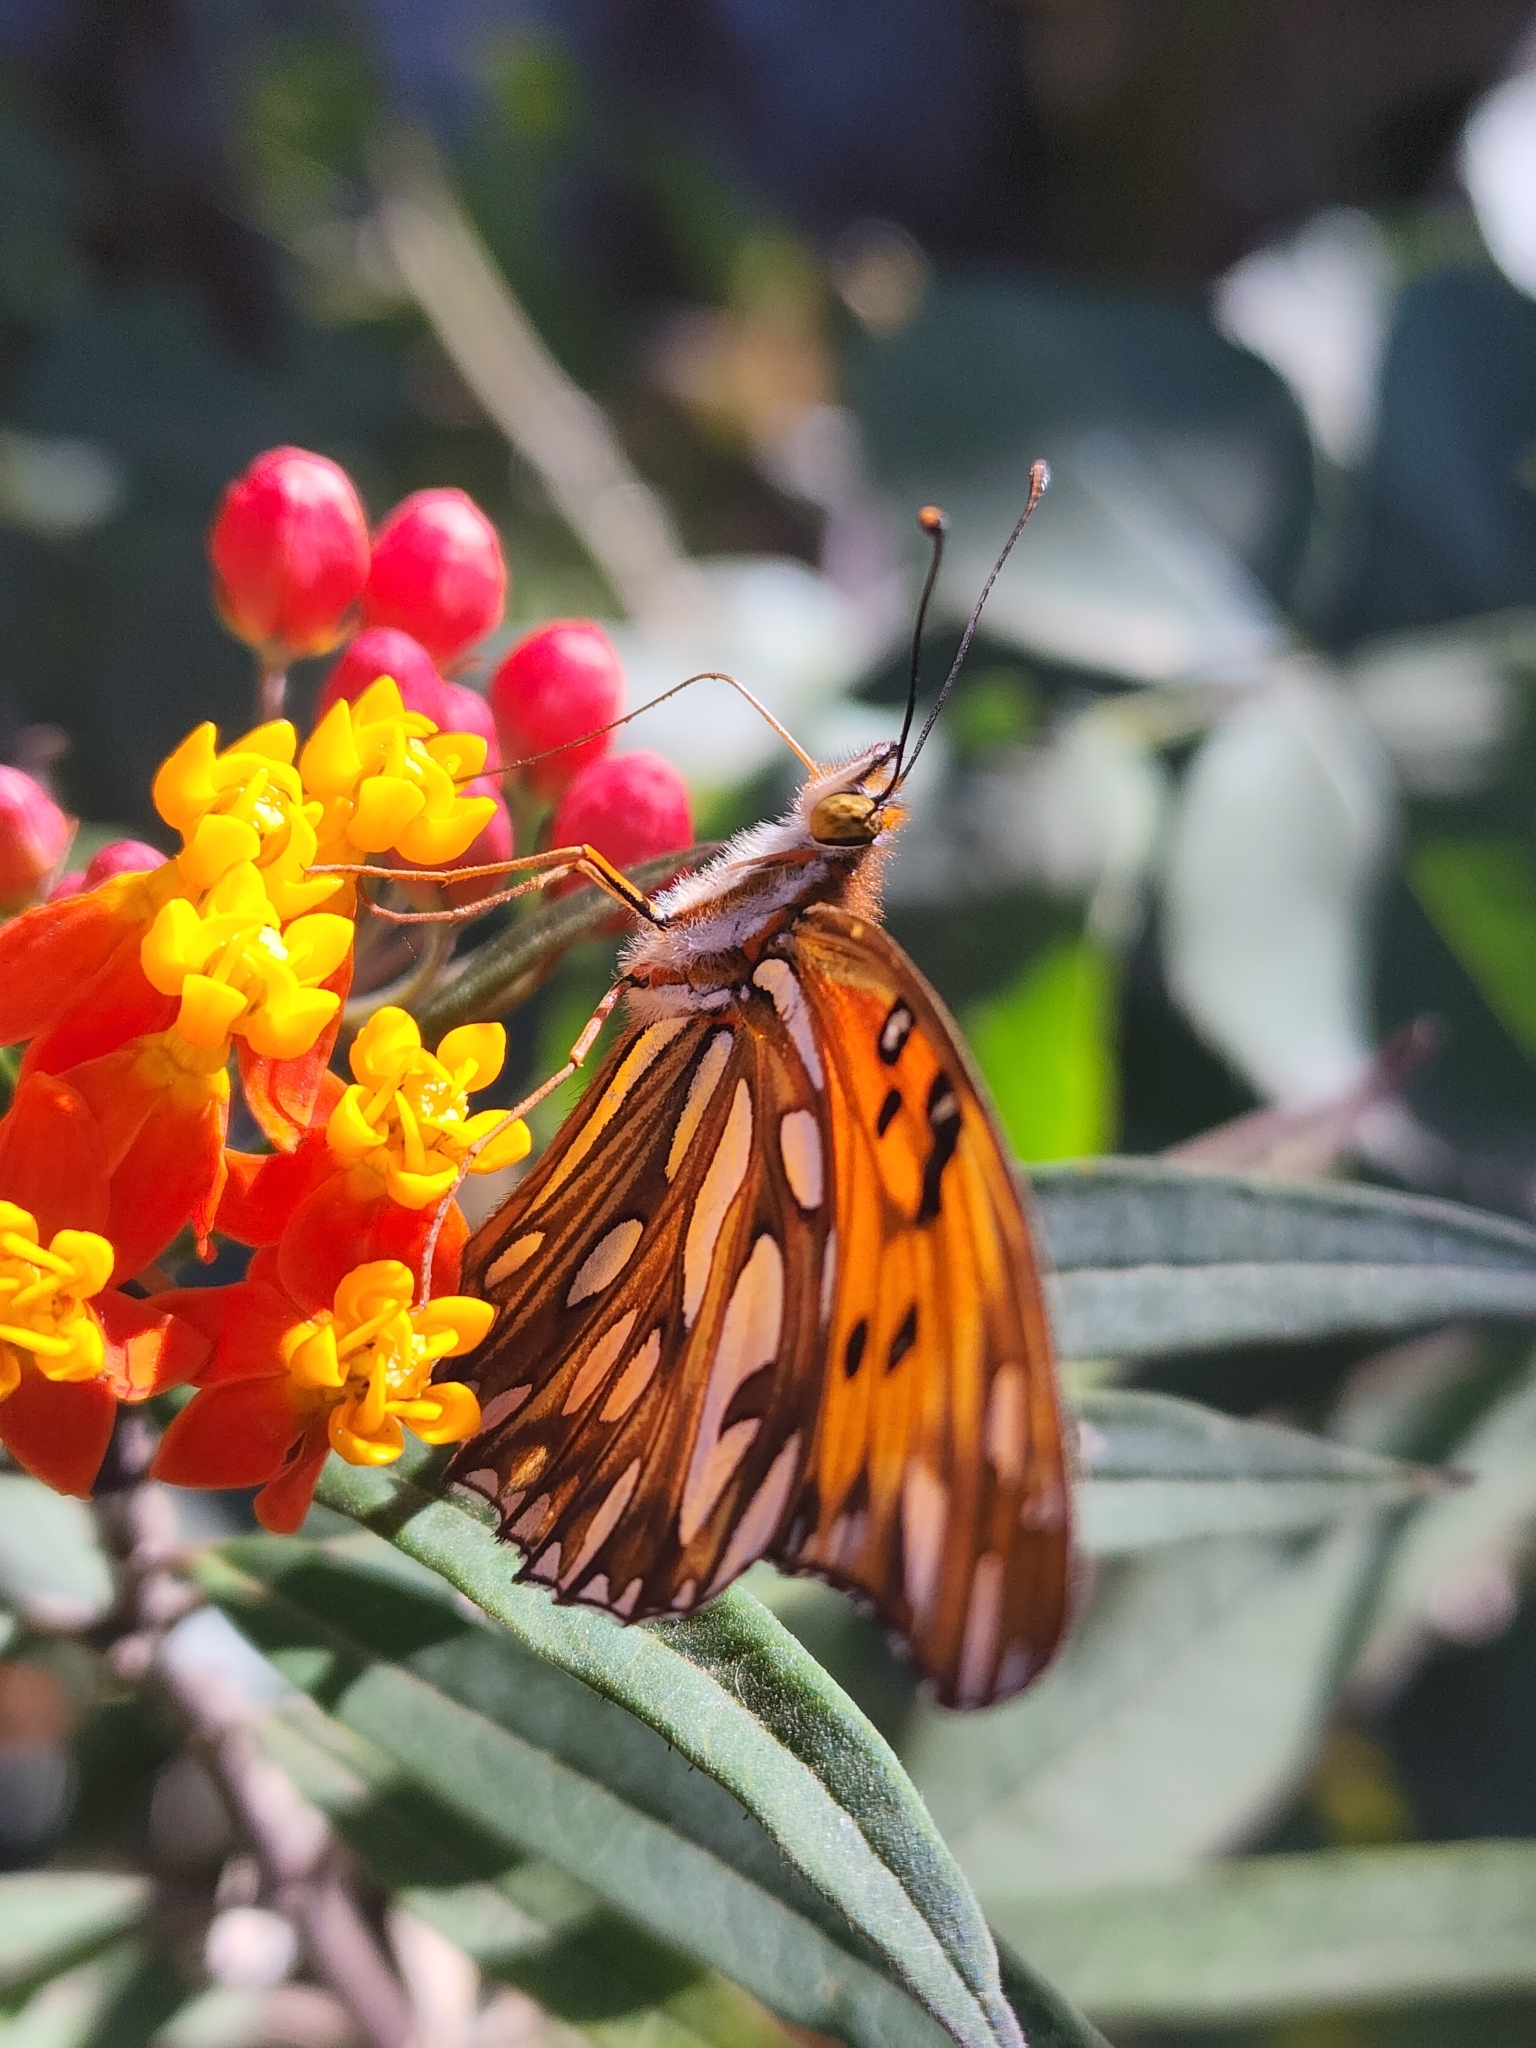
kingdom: Animalia
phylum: Arthropoda
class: Insecta
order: Lepidoptera
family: Nymphalidae
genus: Dione
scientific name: Dione vanillae
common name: Gulf fritillary
